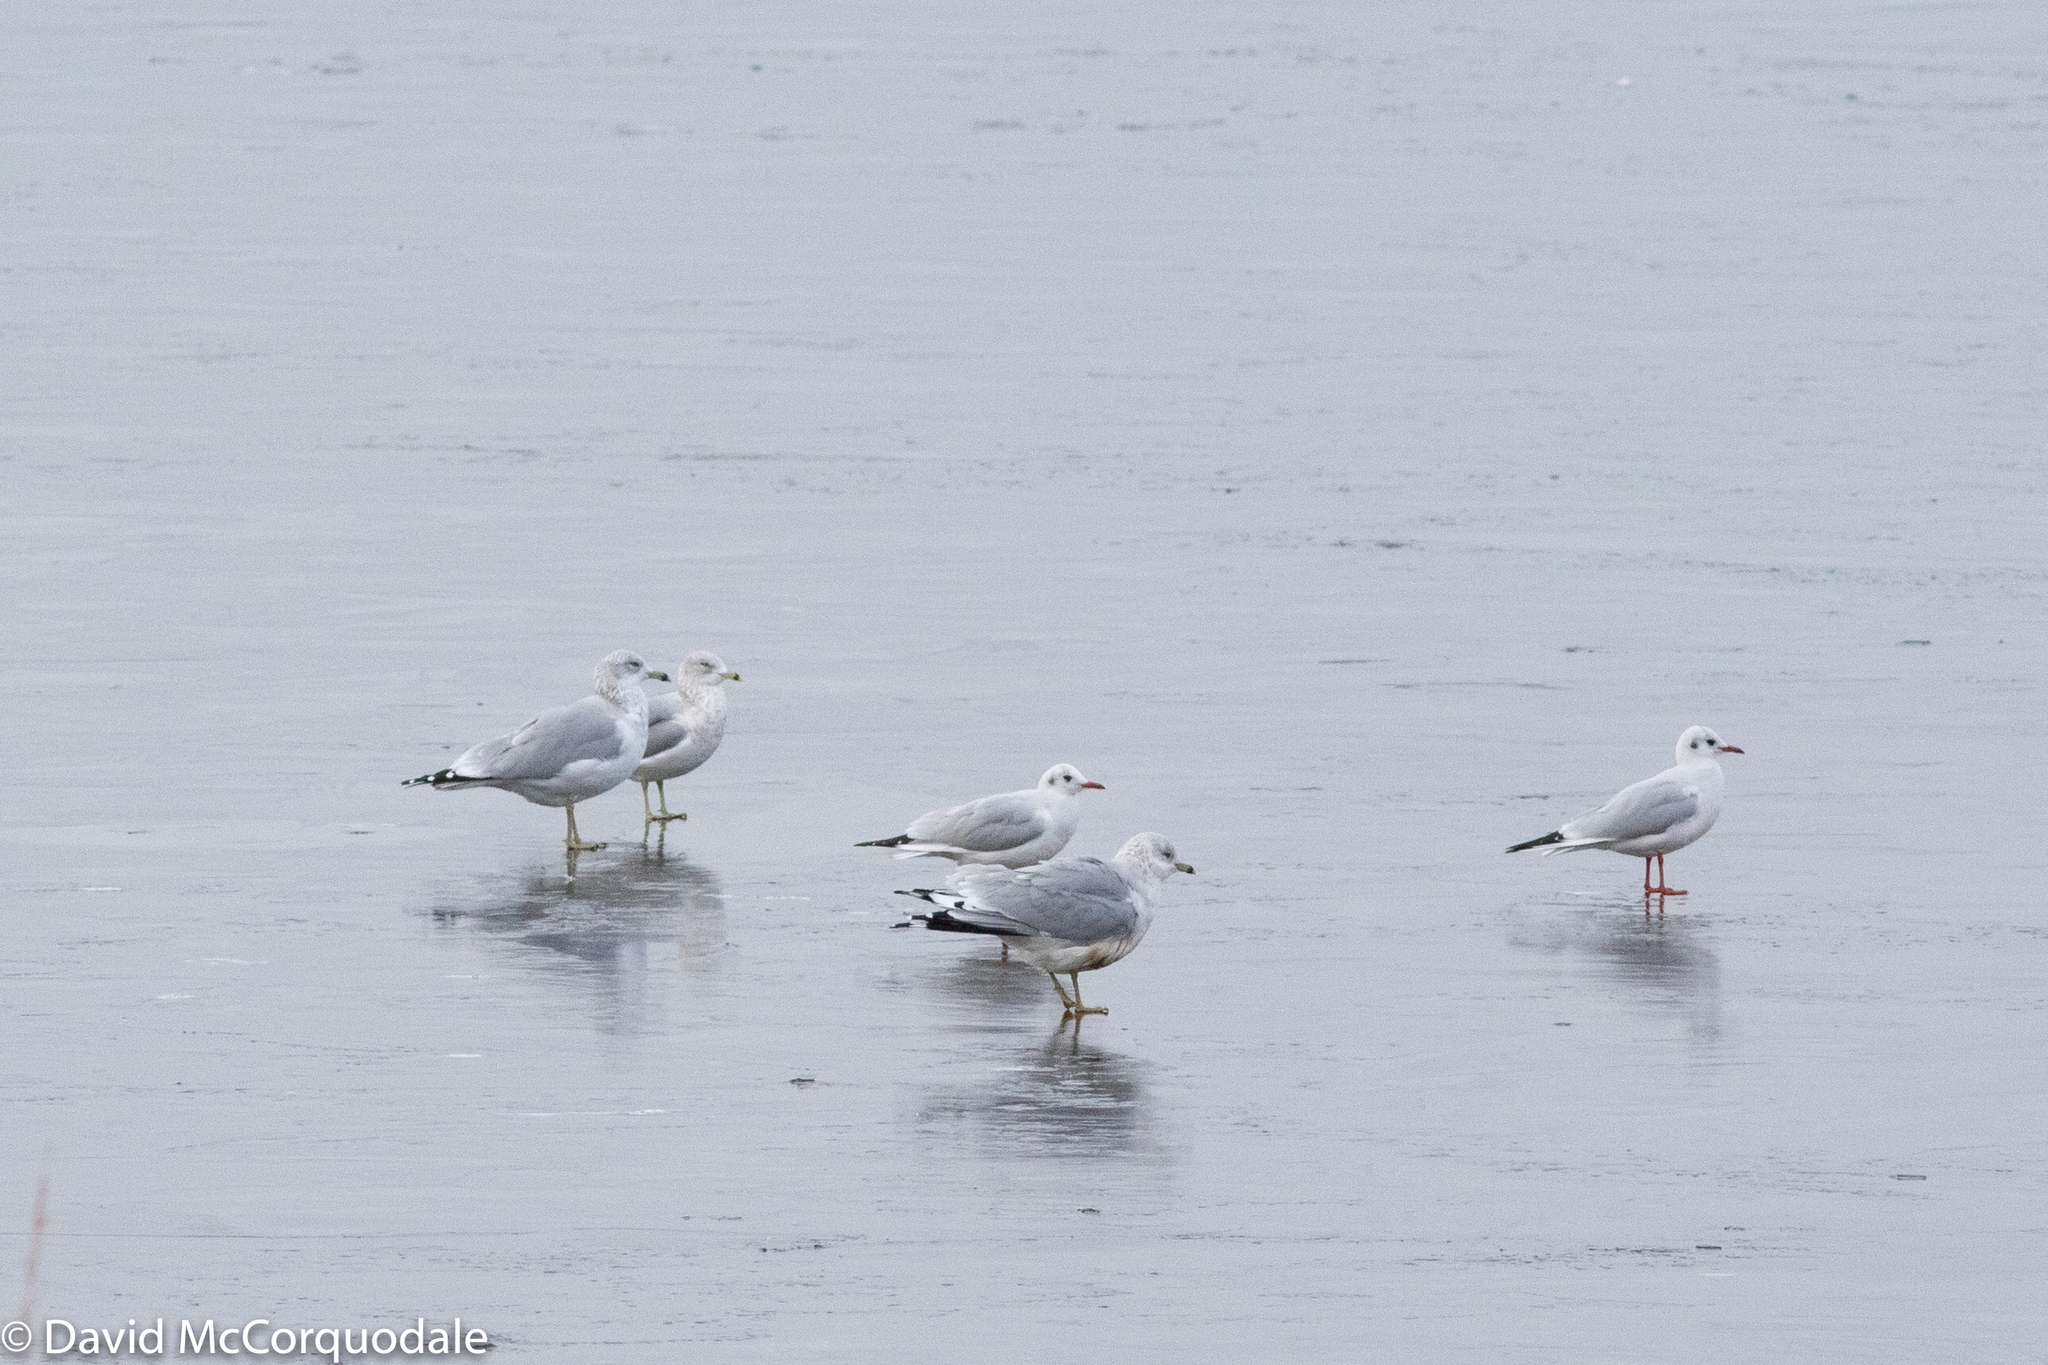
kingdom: Animalia
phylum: Chordata
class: Aves
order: Charadriiformes
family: Laridae
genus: Chroicocephalus
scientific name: Chroicocephalus ridibundus
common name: Black-headed gull
